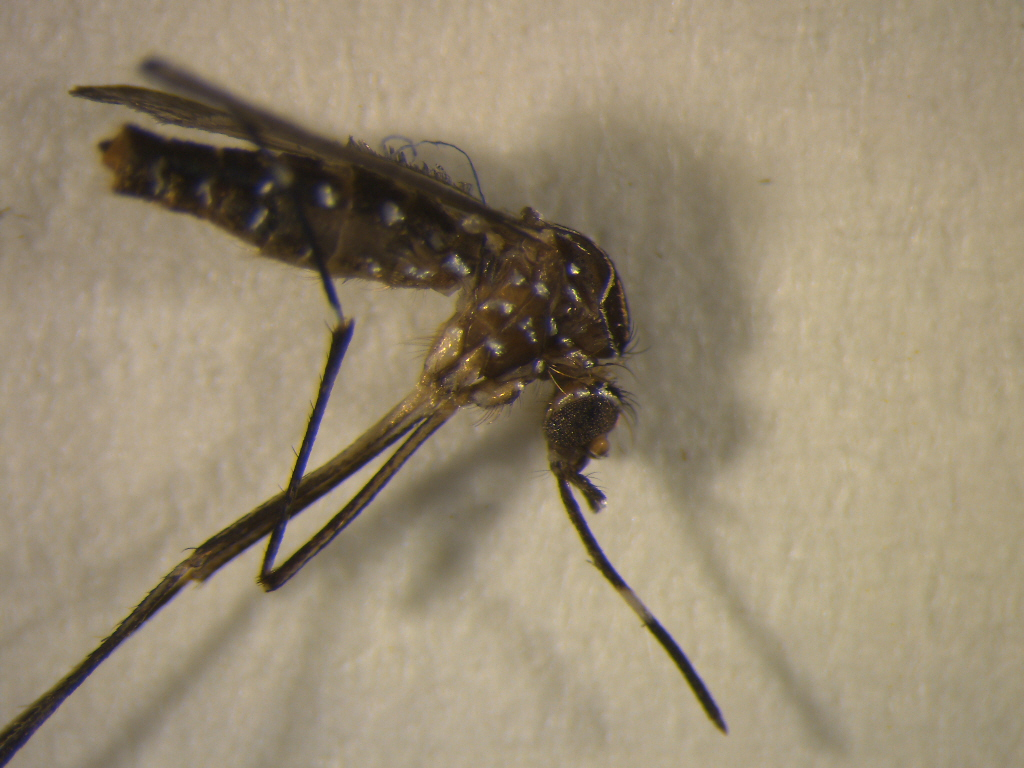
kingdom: Animalia
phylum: Arthropoda
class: Insecta
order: Diptera
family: Culicidae
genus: Aedes
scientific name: Aedes notoscriptus
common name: Australian backyard mosquito
